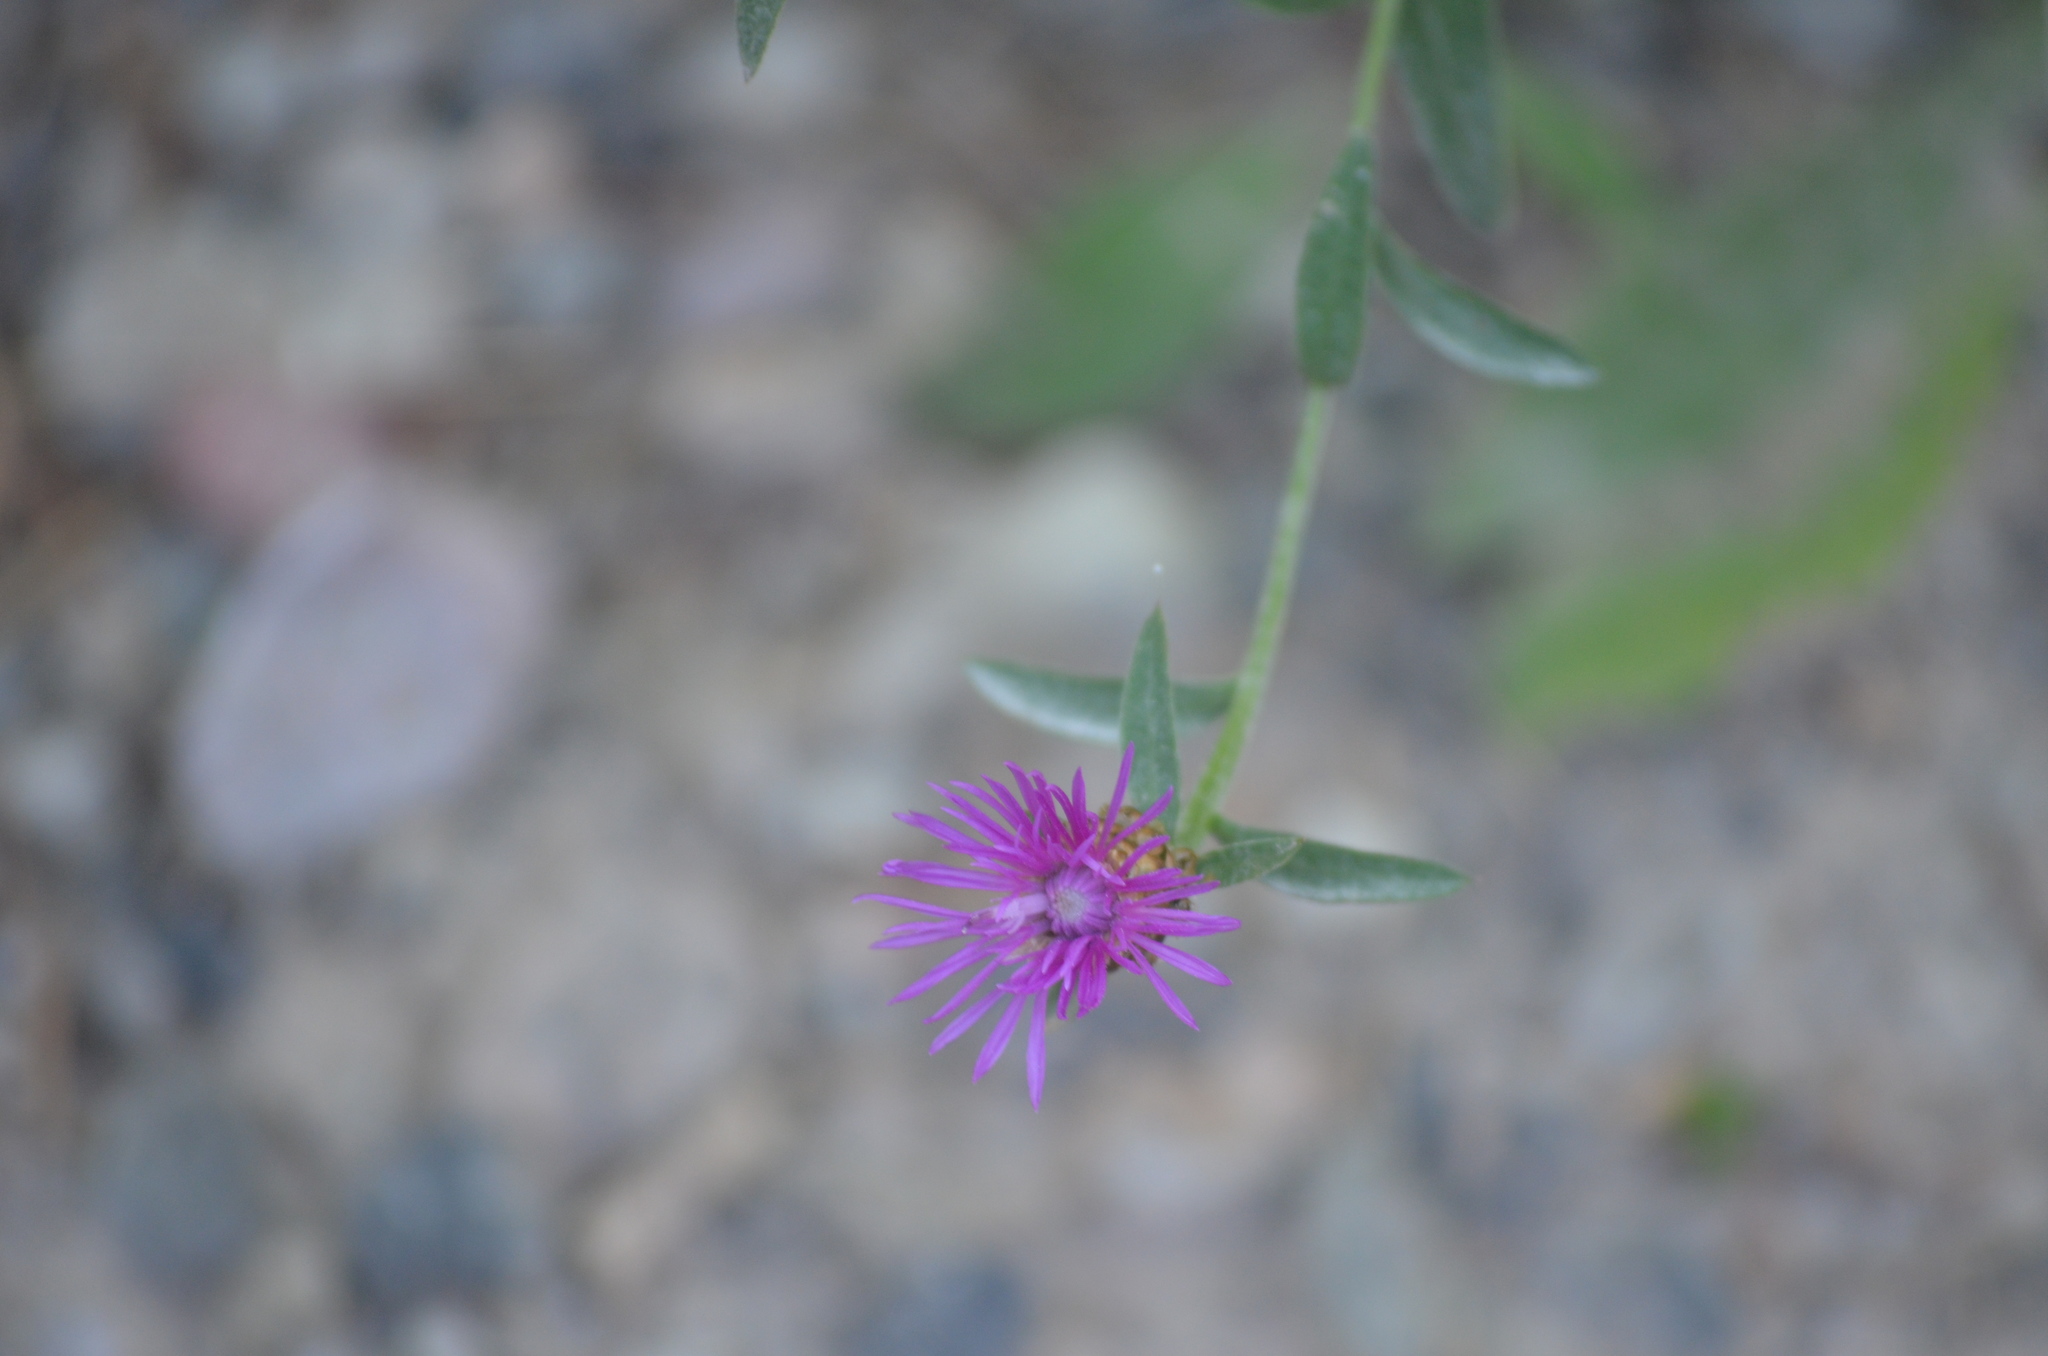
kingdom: Plantae
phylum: Tracheophyta
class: Magnoliopsida
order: Asterales
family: Asteraceae
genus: Centaurea
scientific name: Centaurea jacea
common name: Brown knapweed
